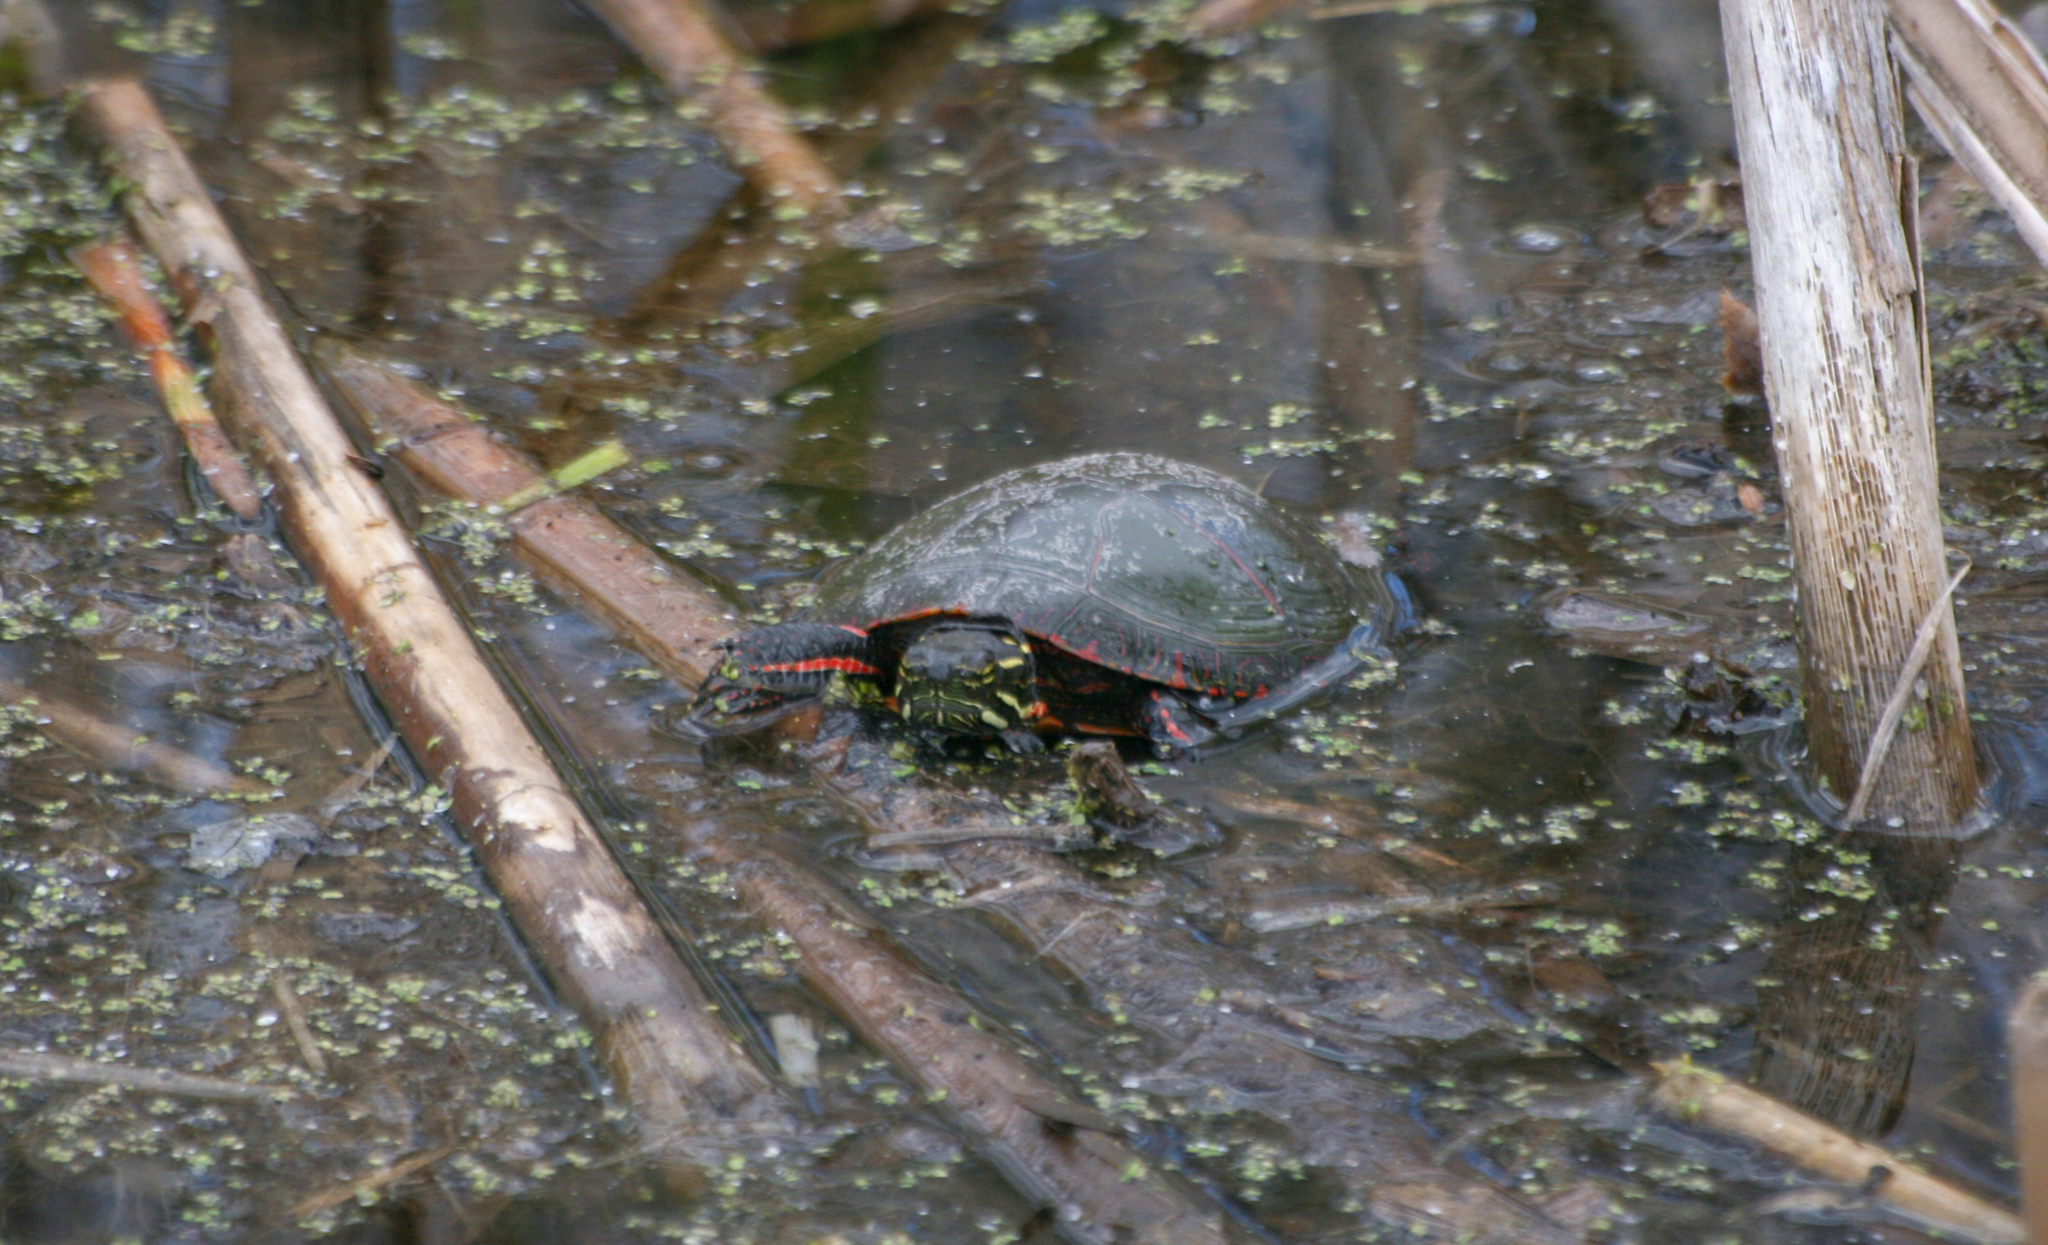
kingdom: Animalia
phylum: Chordata
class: Testudines
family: Emydidae
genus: Chrysemys
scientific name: Chrysemys picta
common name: Painted turtle
